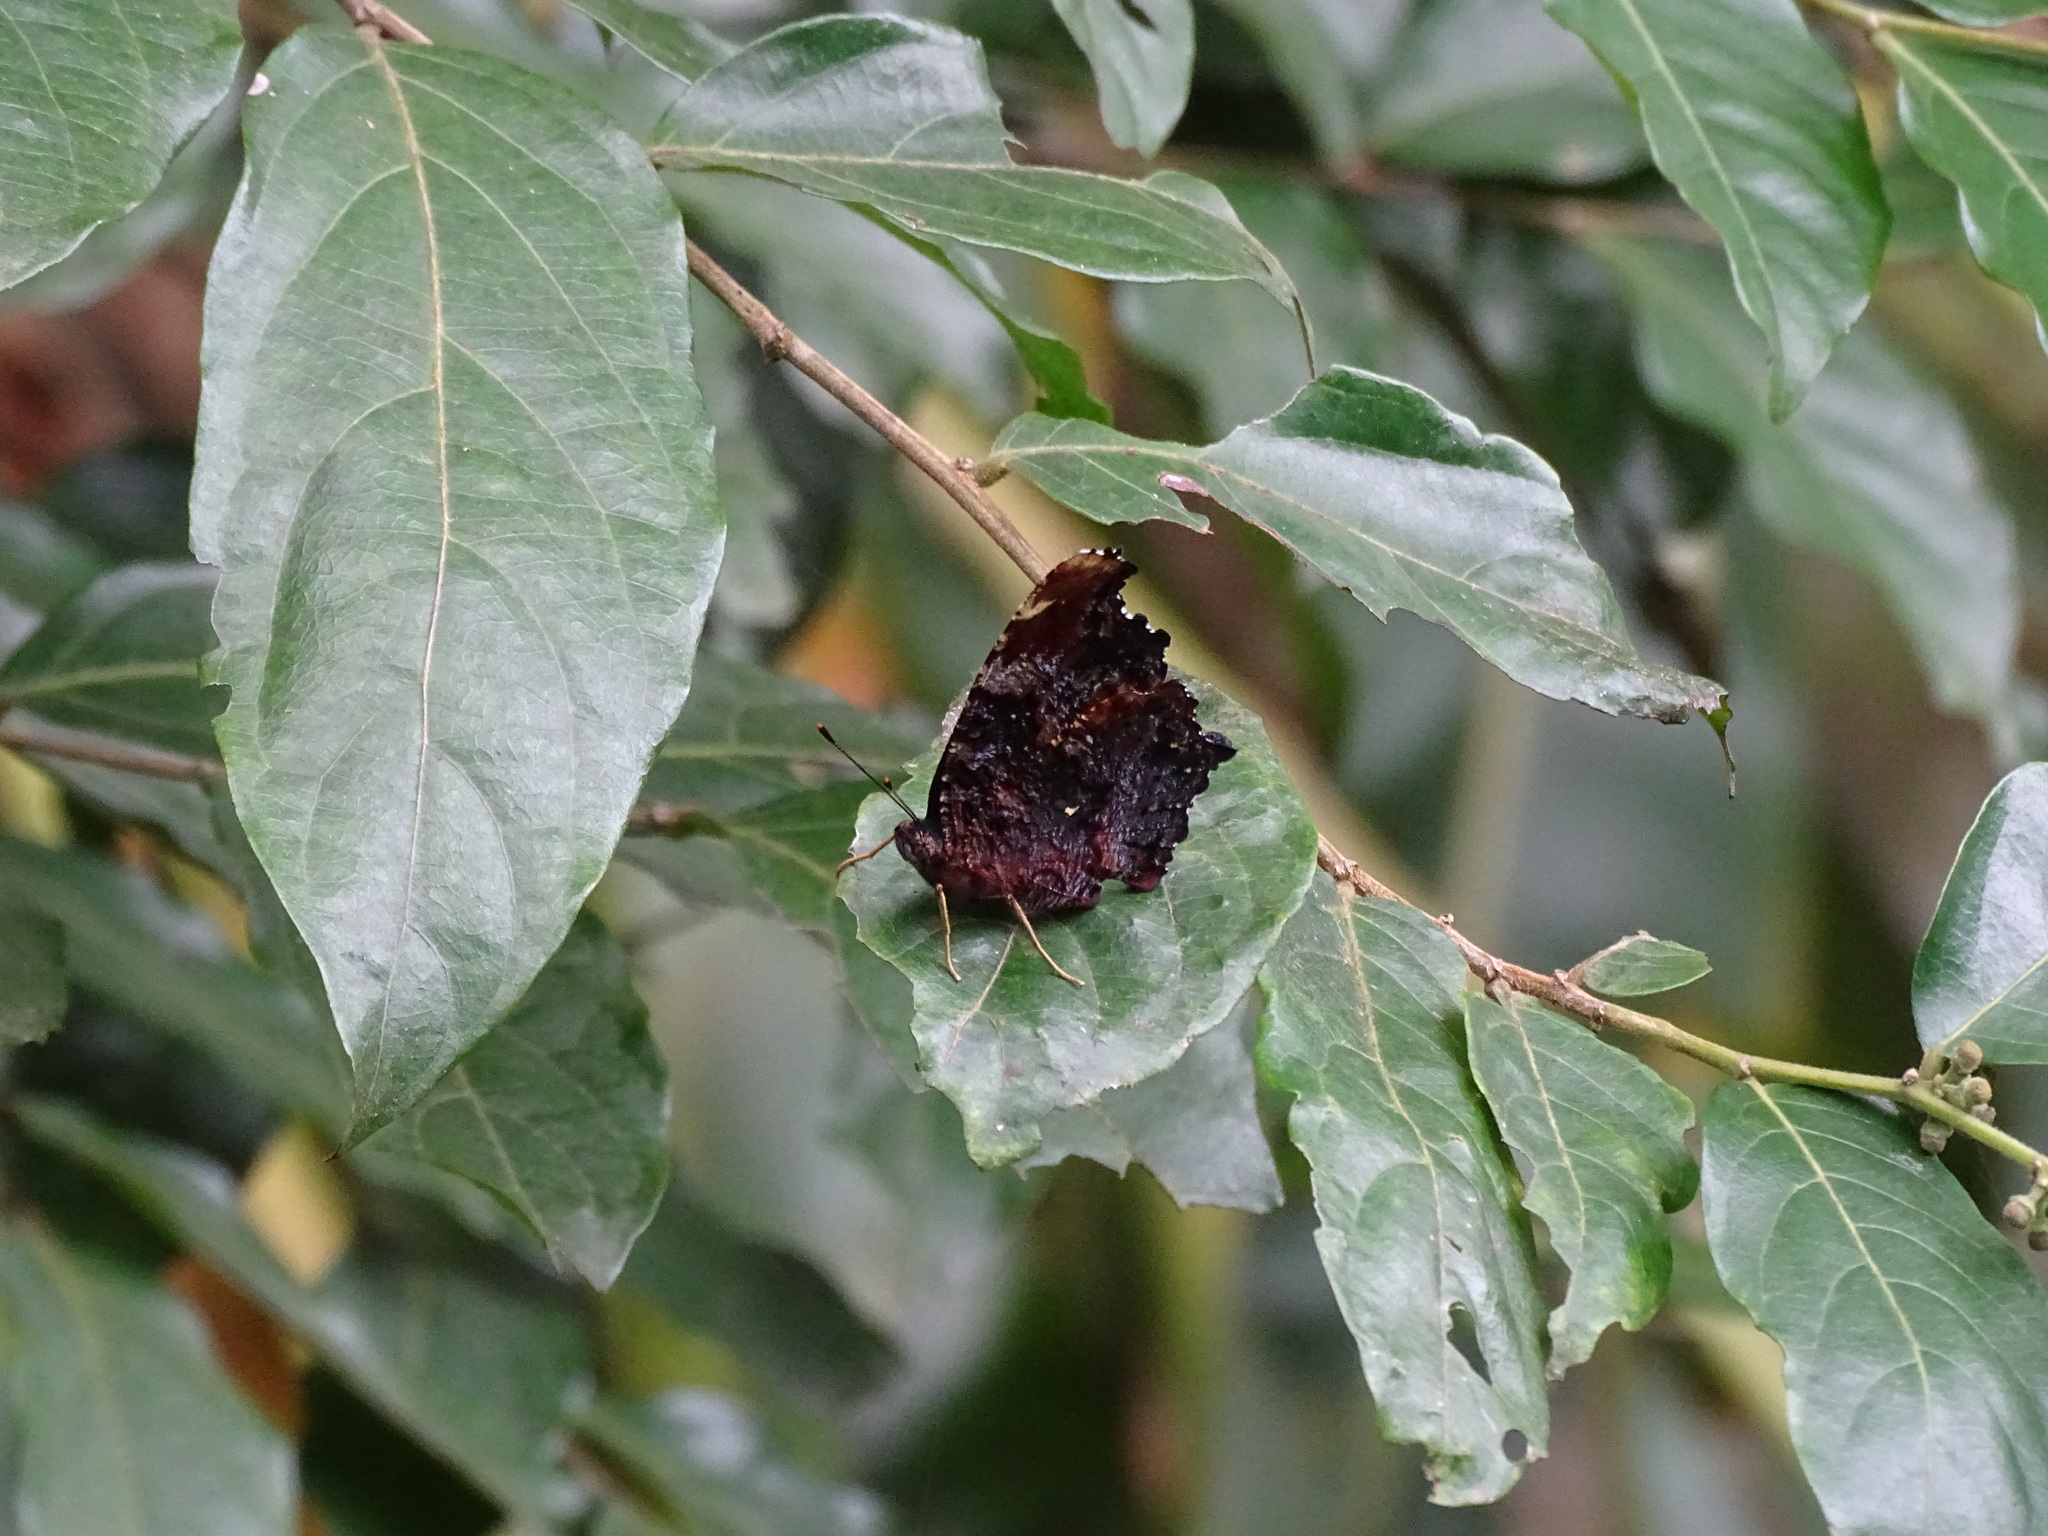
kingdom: Animalia
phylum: Arthropoda
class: Insecta
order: Lepidoptera
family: Nymphalidae
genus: Vanessa
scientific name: Vanessa Kaniska canace
